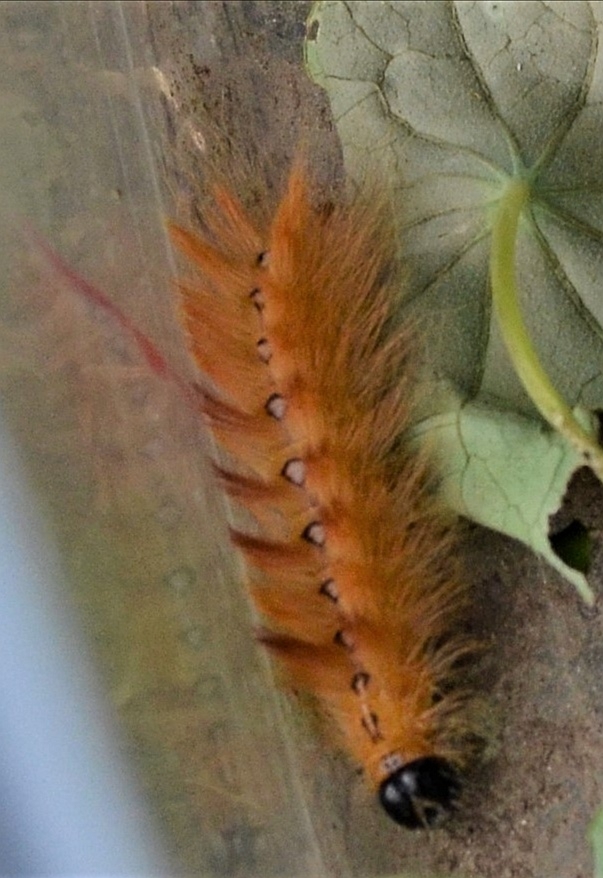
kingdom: Animalia
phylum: Arthropoda
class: Insecta
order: Lepidoptera
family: Noctuidae
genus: Acronicta
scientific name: Acronicta aceris
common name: Sycamore
